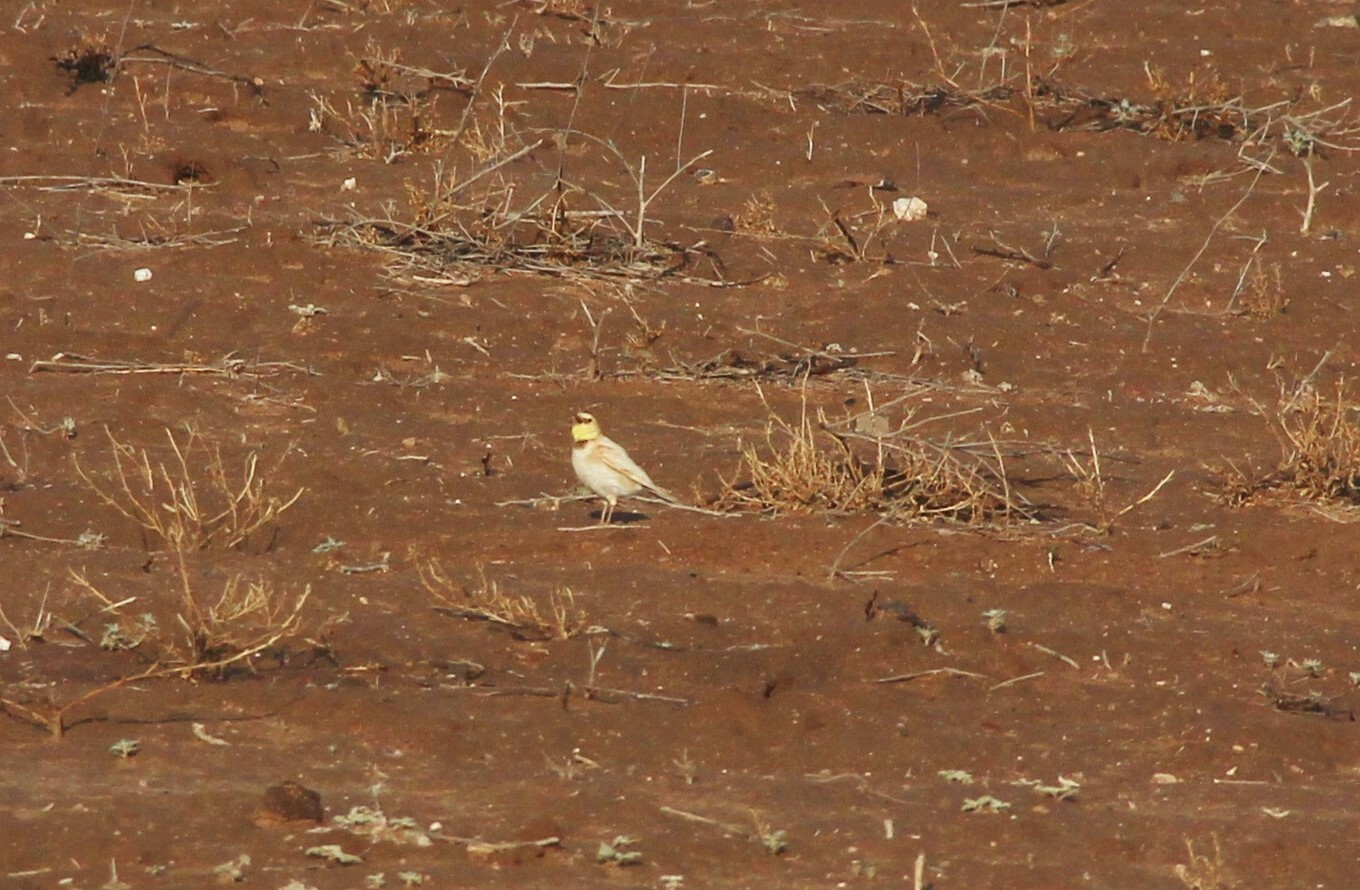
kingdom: Animalia
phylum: Chordata
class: Aves
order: Passeriformes
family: Alaudidae
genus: Eremophila
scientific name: Eremophila alpestris
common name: Horned lark
